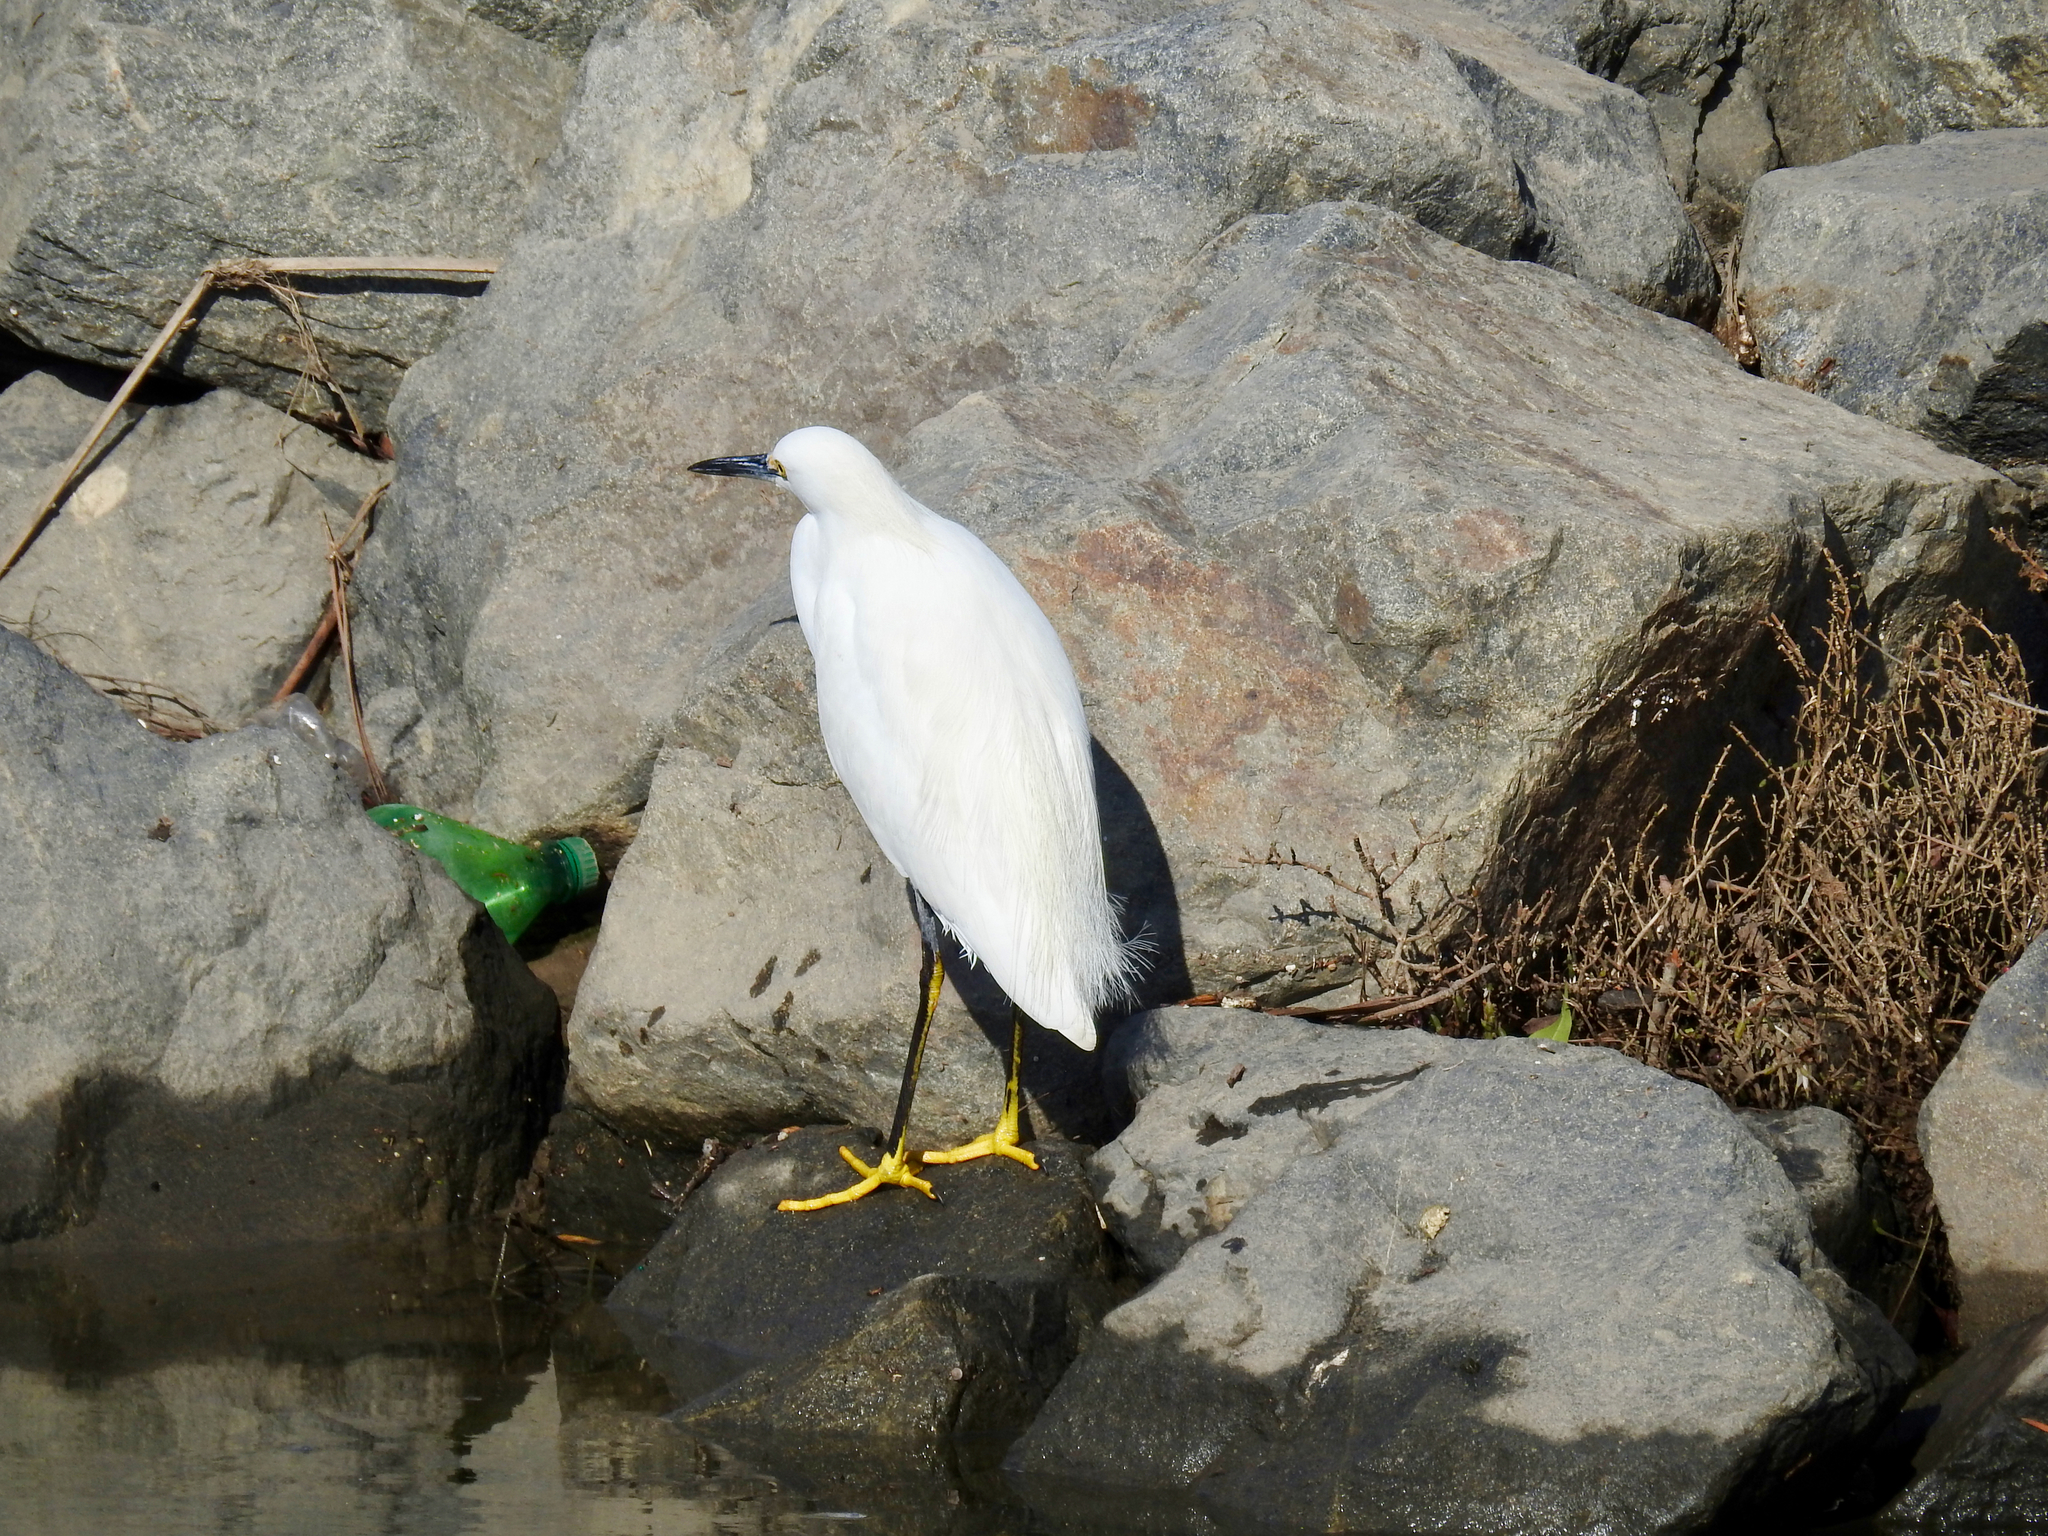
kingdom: Animalia
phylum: Chordata
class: Aves
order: Pelecaniformes
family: Ardeidae
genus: Egretta
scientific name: Egretta thula
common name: Snowy egret
